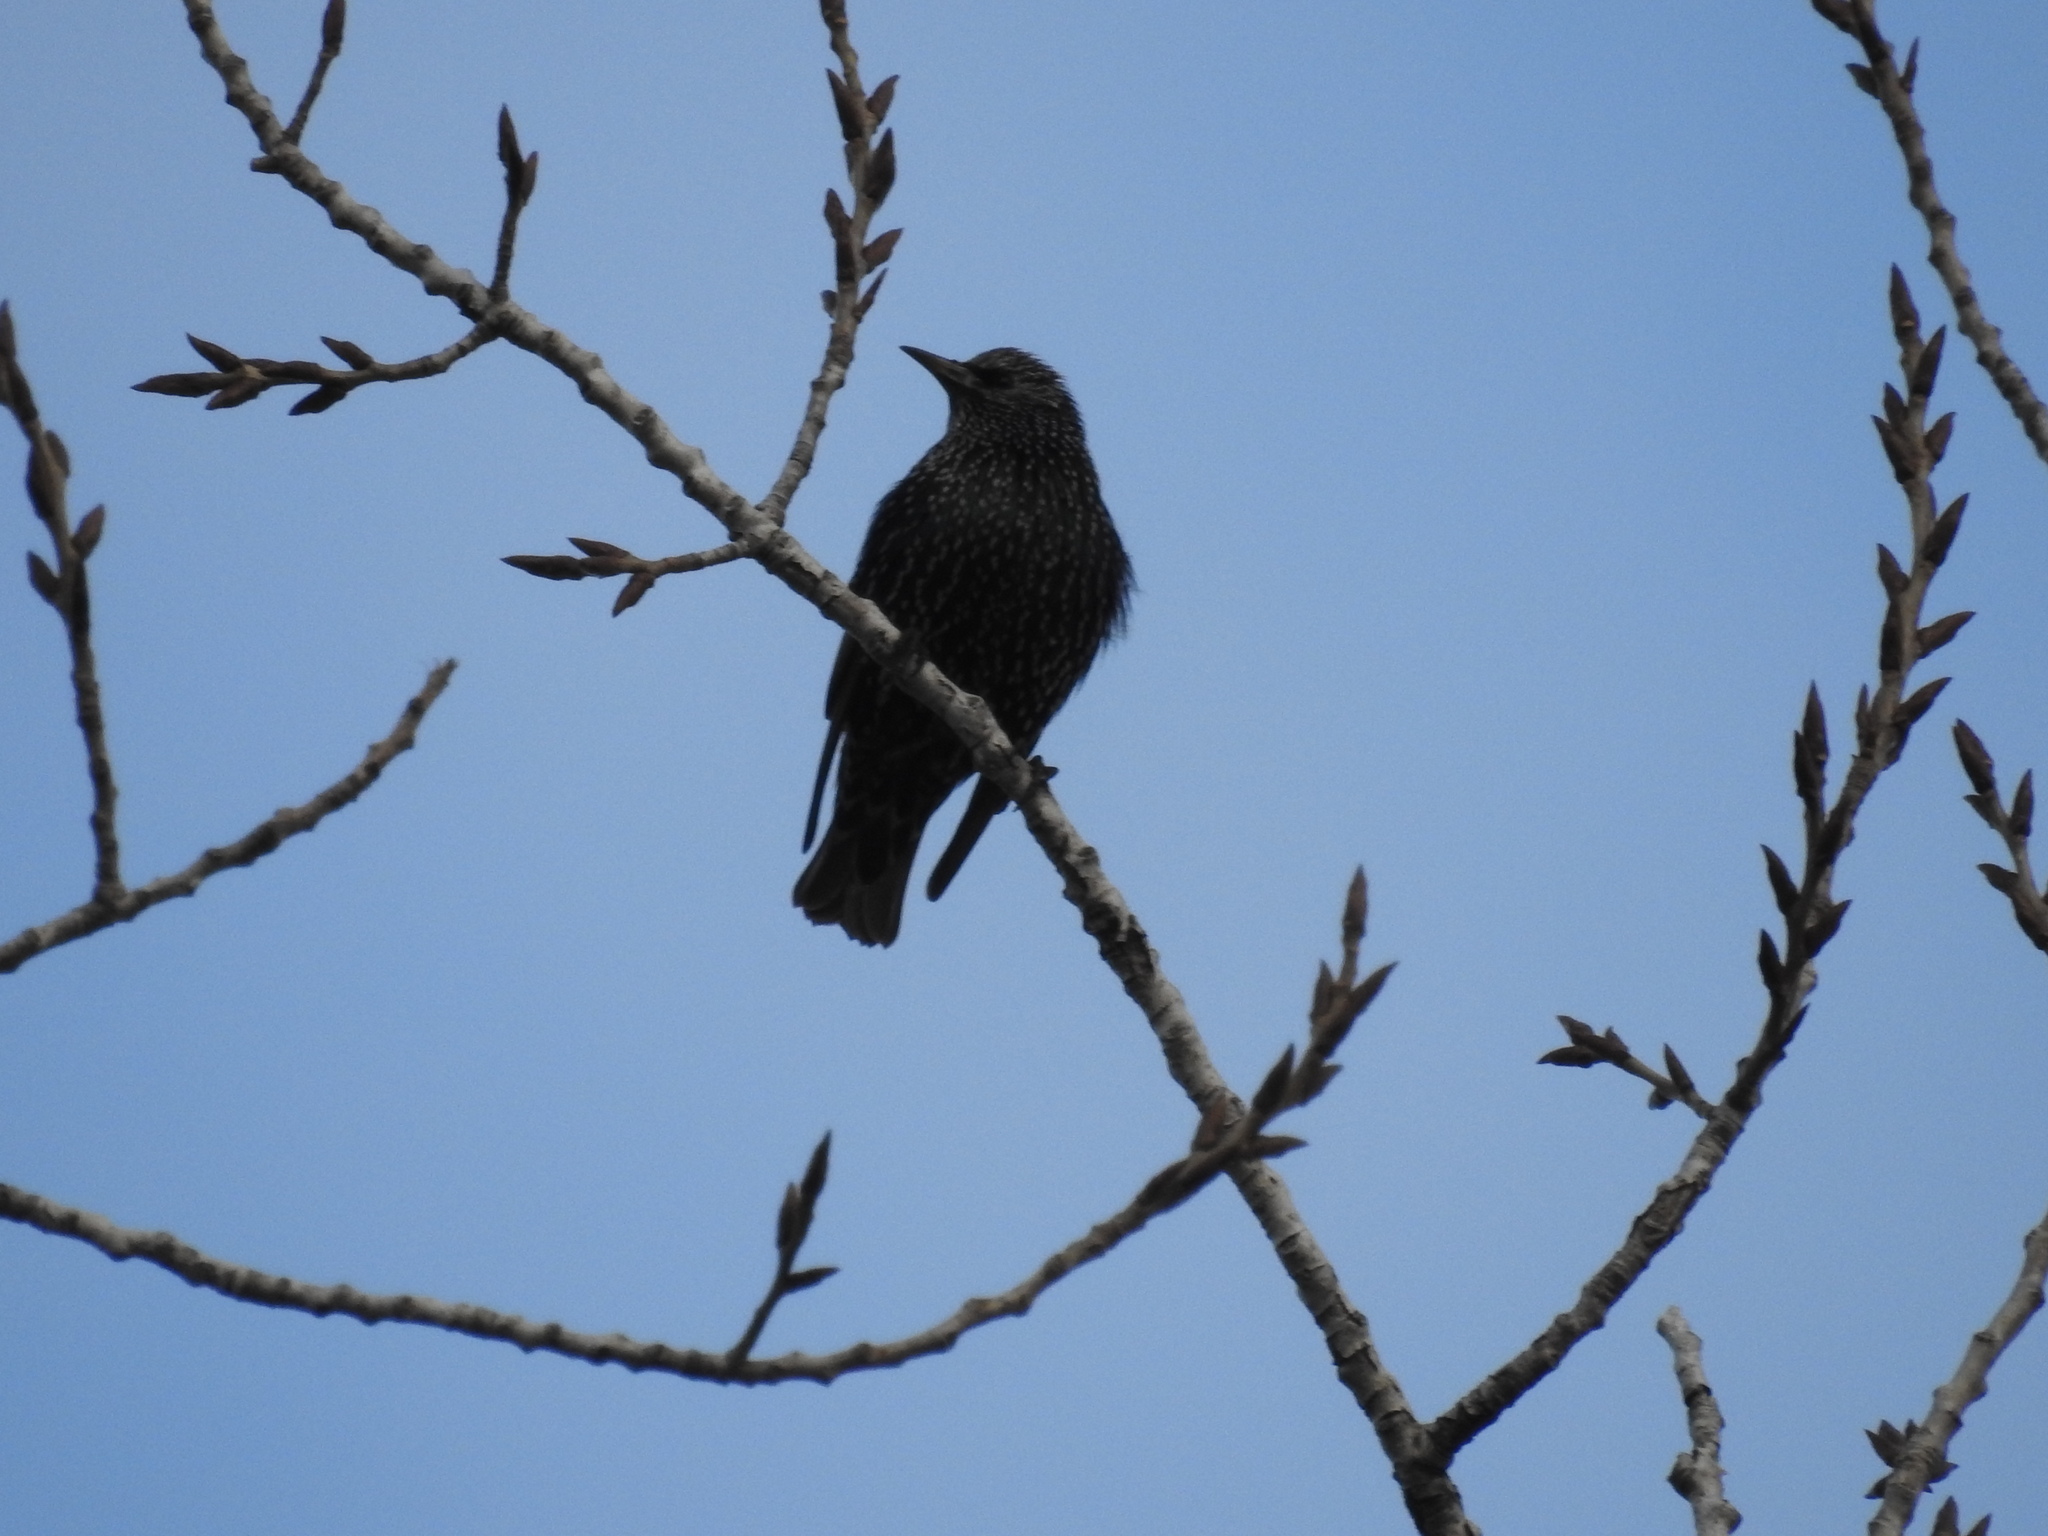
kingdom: Animalia
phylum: Chordata
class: Aves
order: Passeriformes
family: Sturnidae
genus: Sturnus
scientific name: Sturnus vulgaris
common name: Common starling
